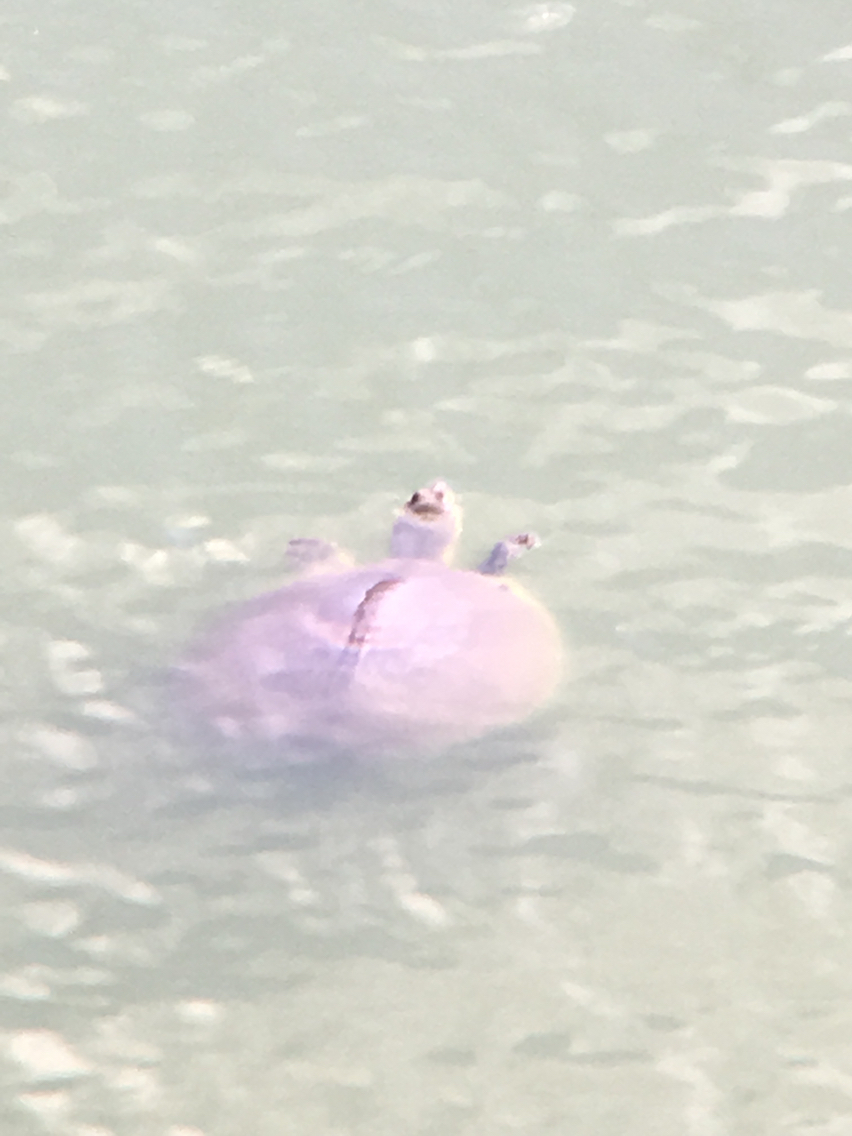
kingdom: Animalia
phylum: Chordata
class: Testudines
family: Trionychidae
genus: Apalone
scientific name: Apalone spinifera
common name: Spiny softshell turtle
